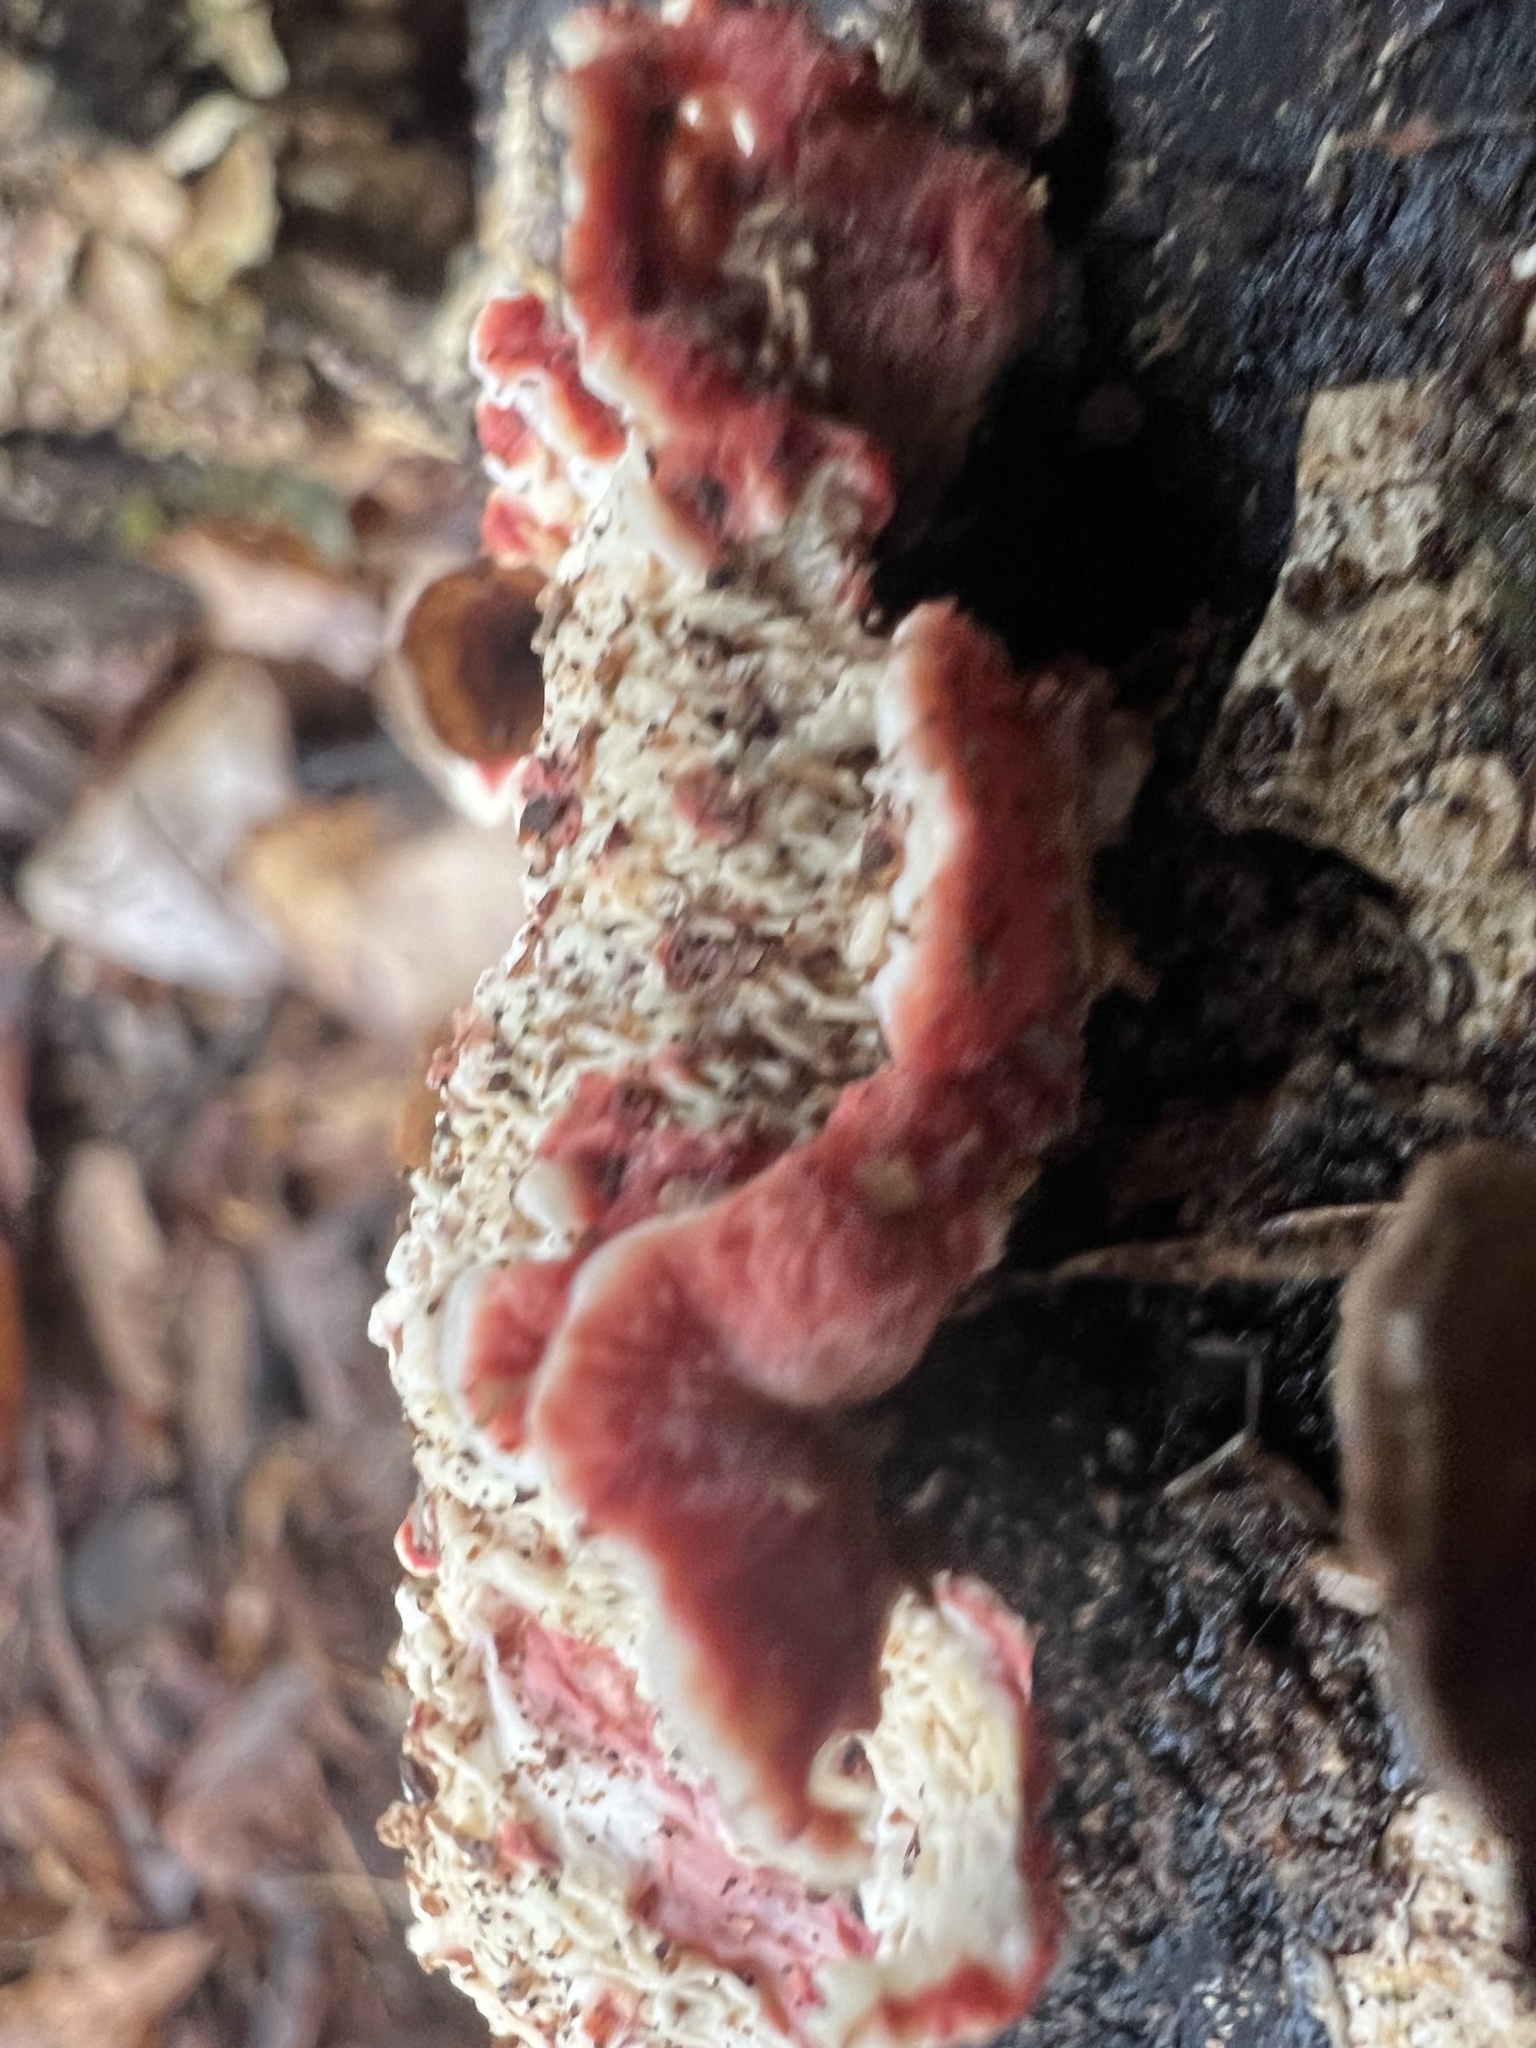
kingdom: Fungi
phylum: Basidiomycota
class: Agaricomycetes
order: Polyporales
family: Irpicaceae
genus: Byssomerulius
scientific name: Byssomerulius incarnatus
